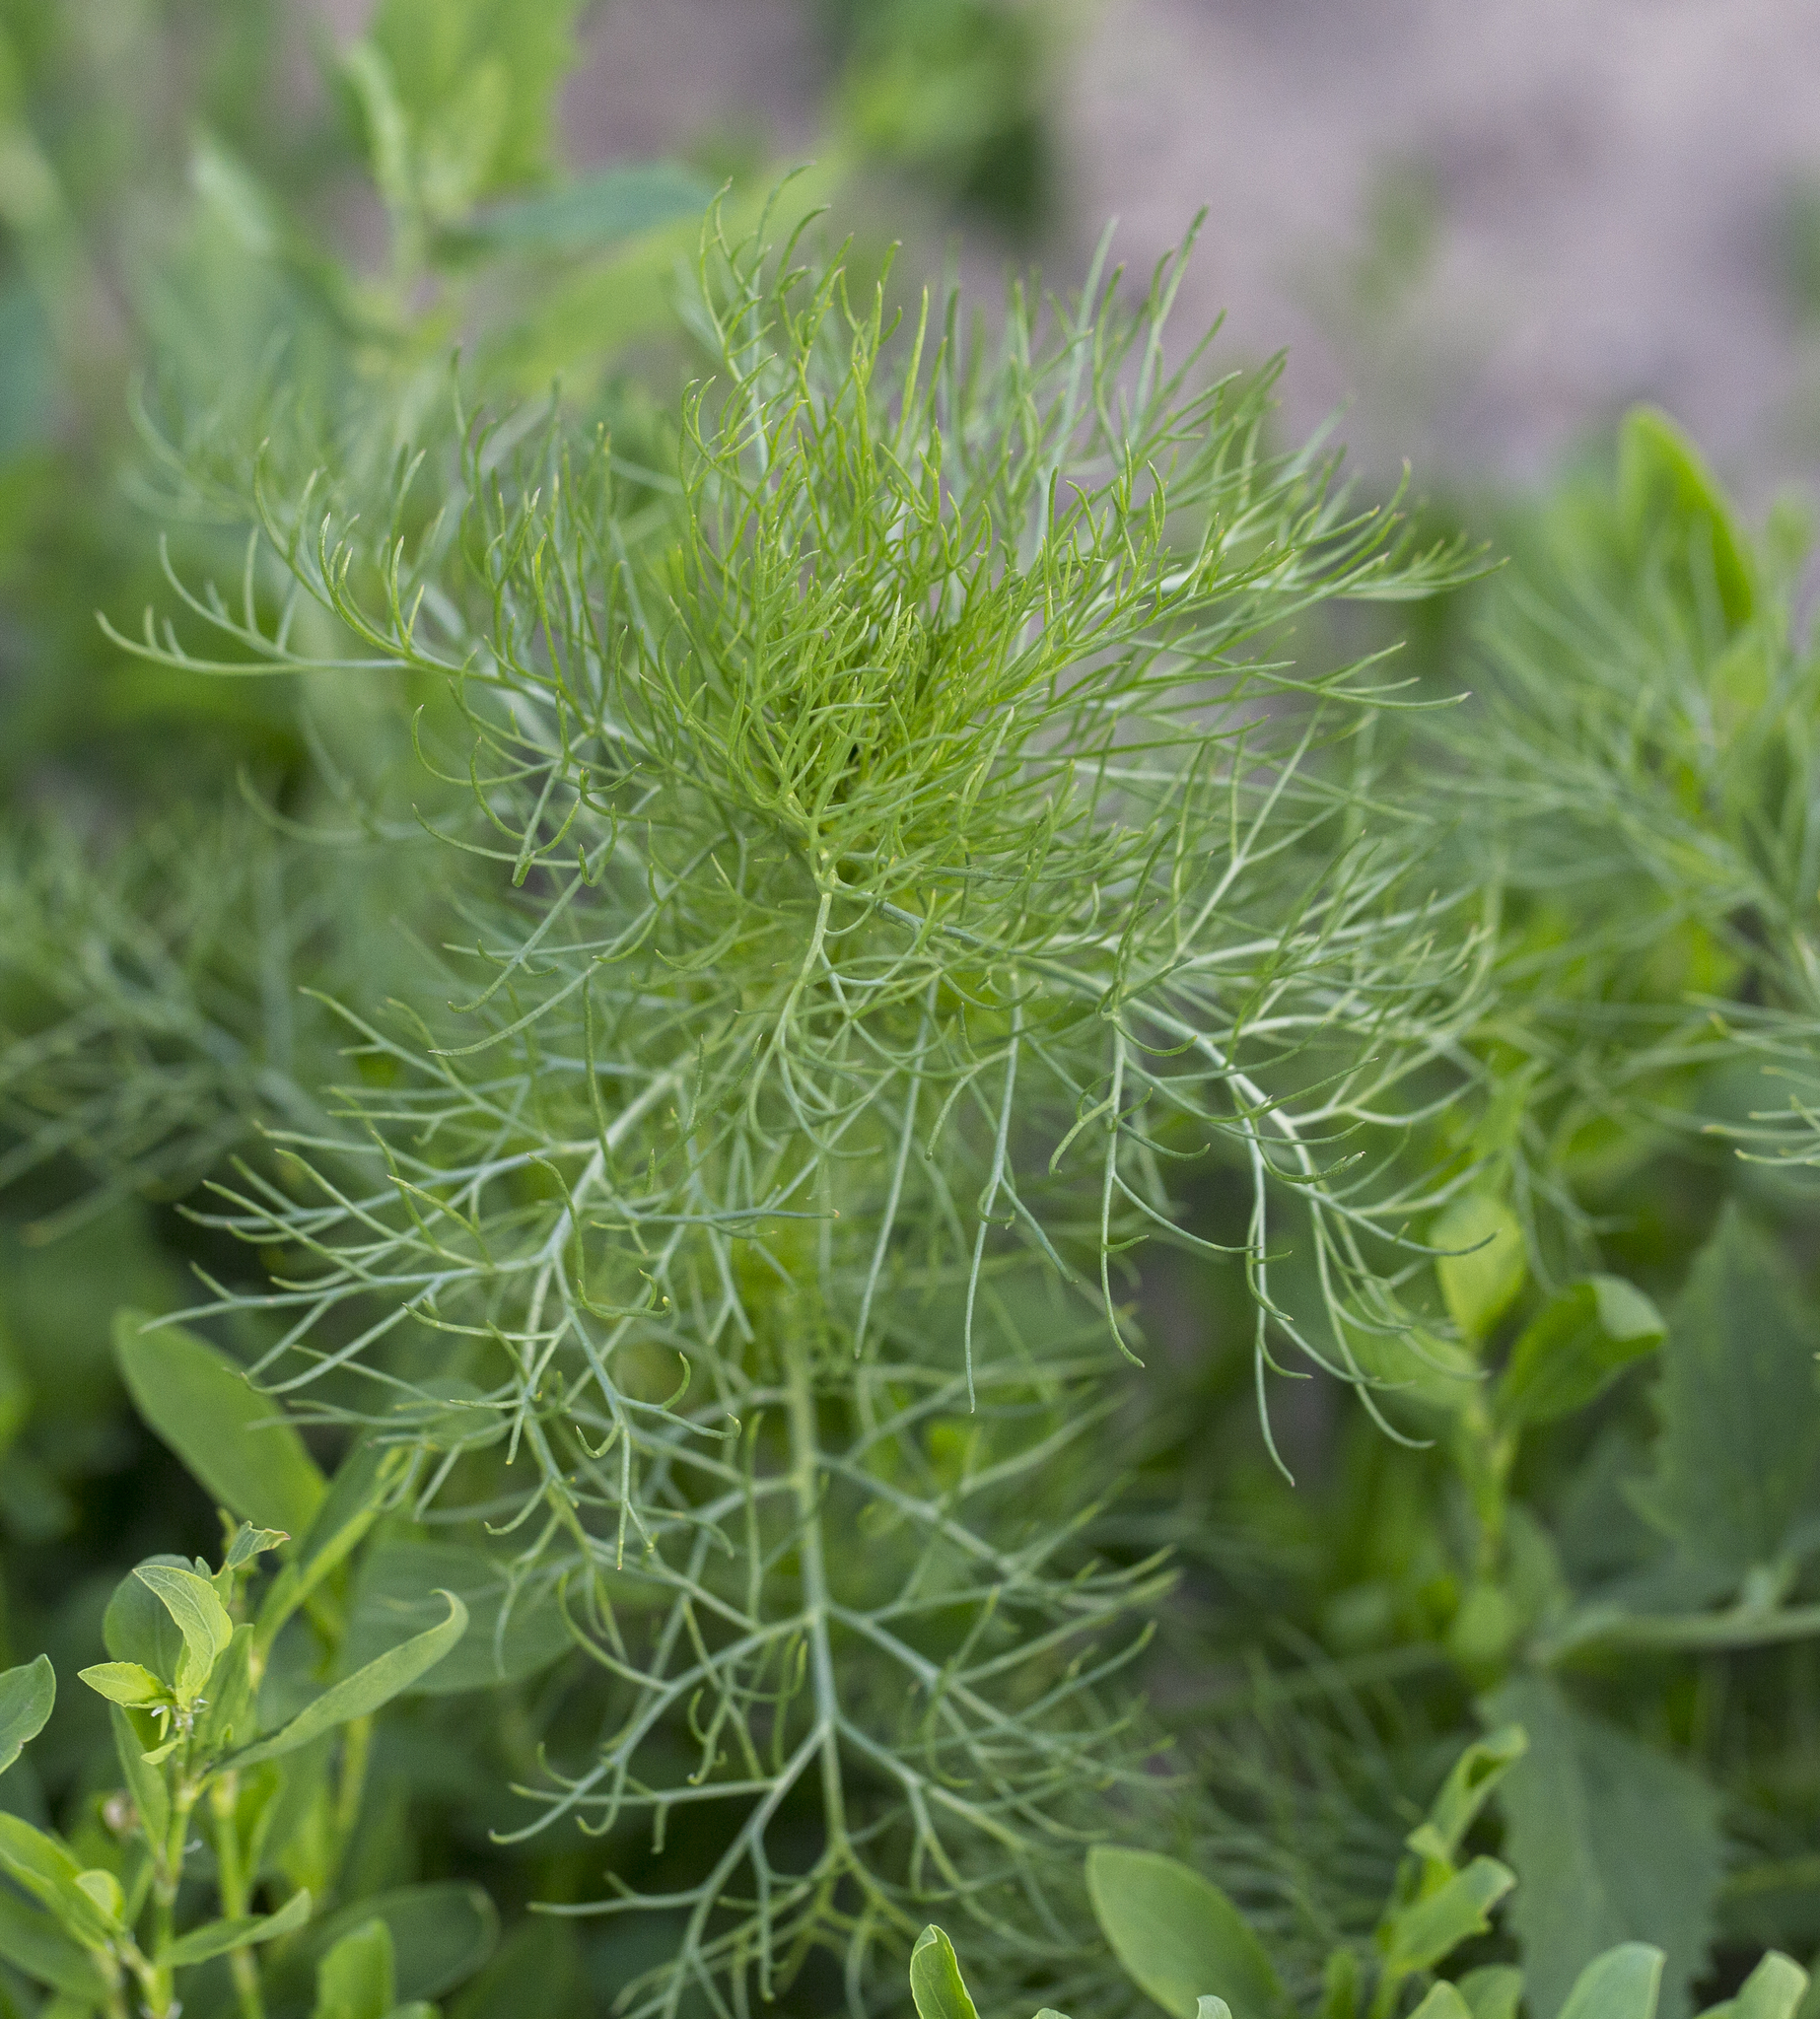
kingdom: Plantae
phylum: Tracheophyta
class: Magnoliopsida
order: Asterales
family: Asteraceae
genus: Tripleurospermum
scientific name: Tripleurospermum inodorum
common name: Scentless mayweed
